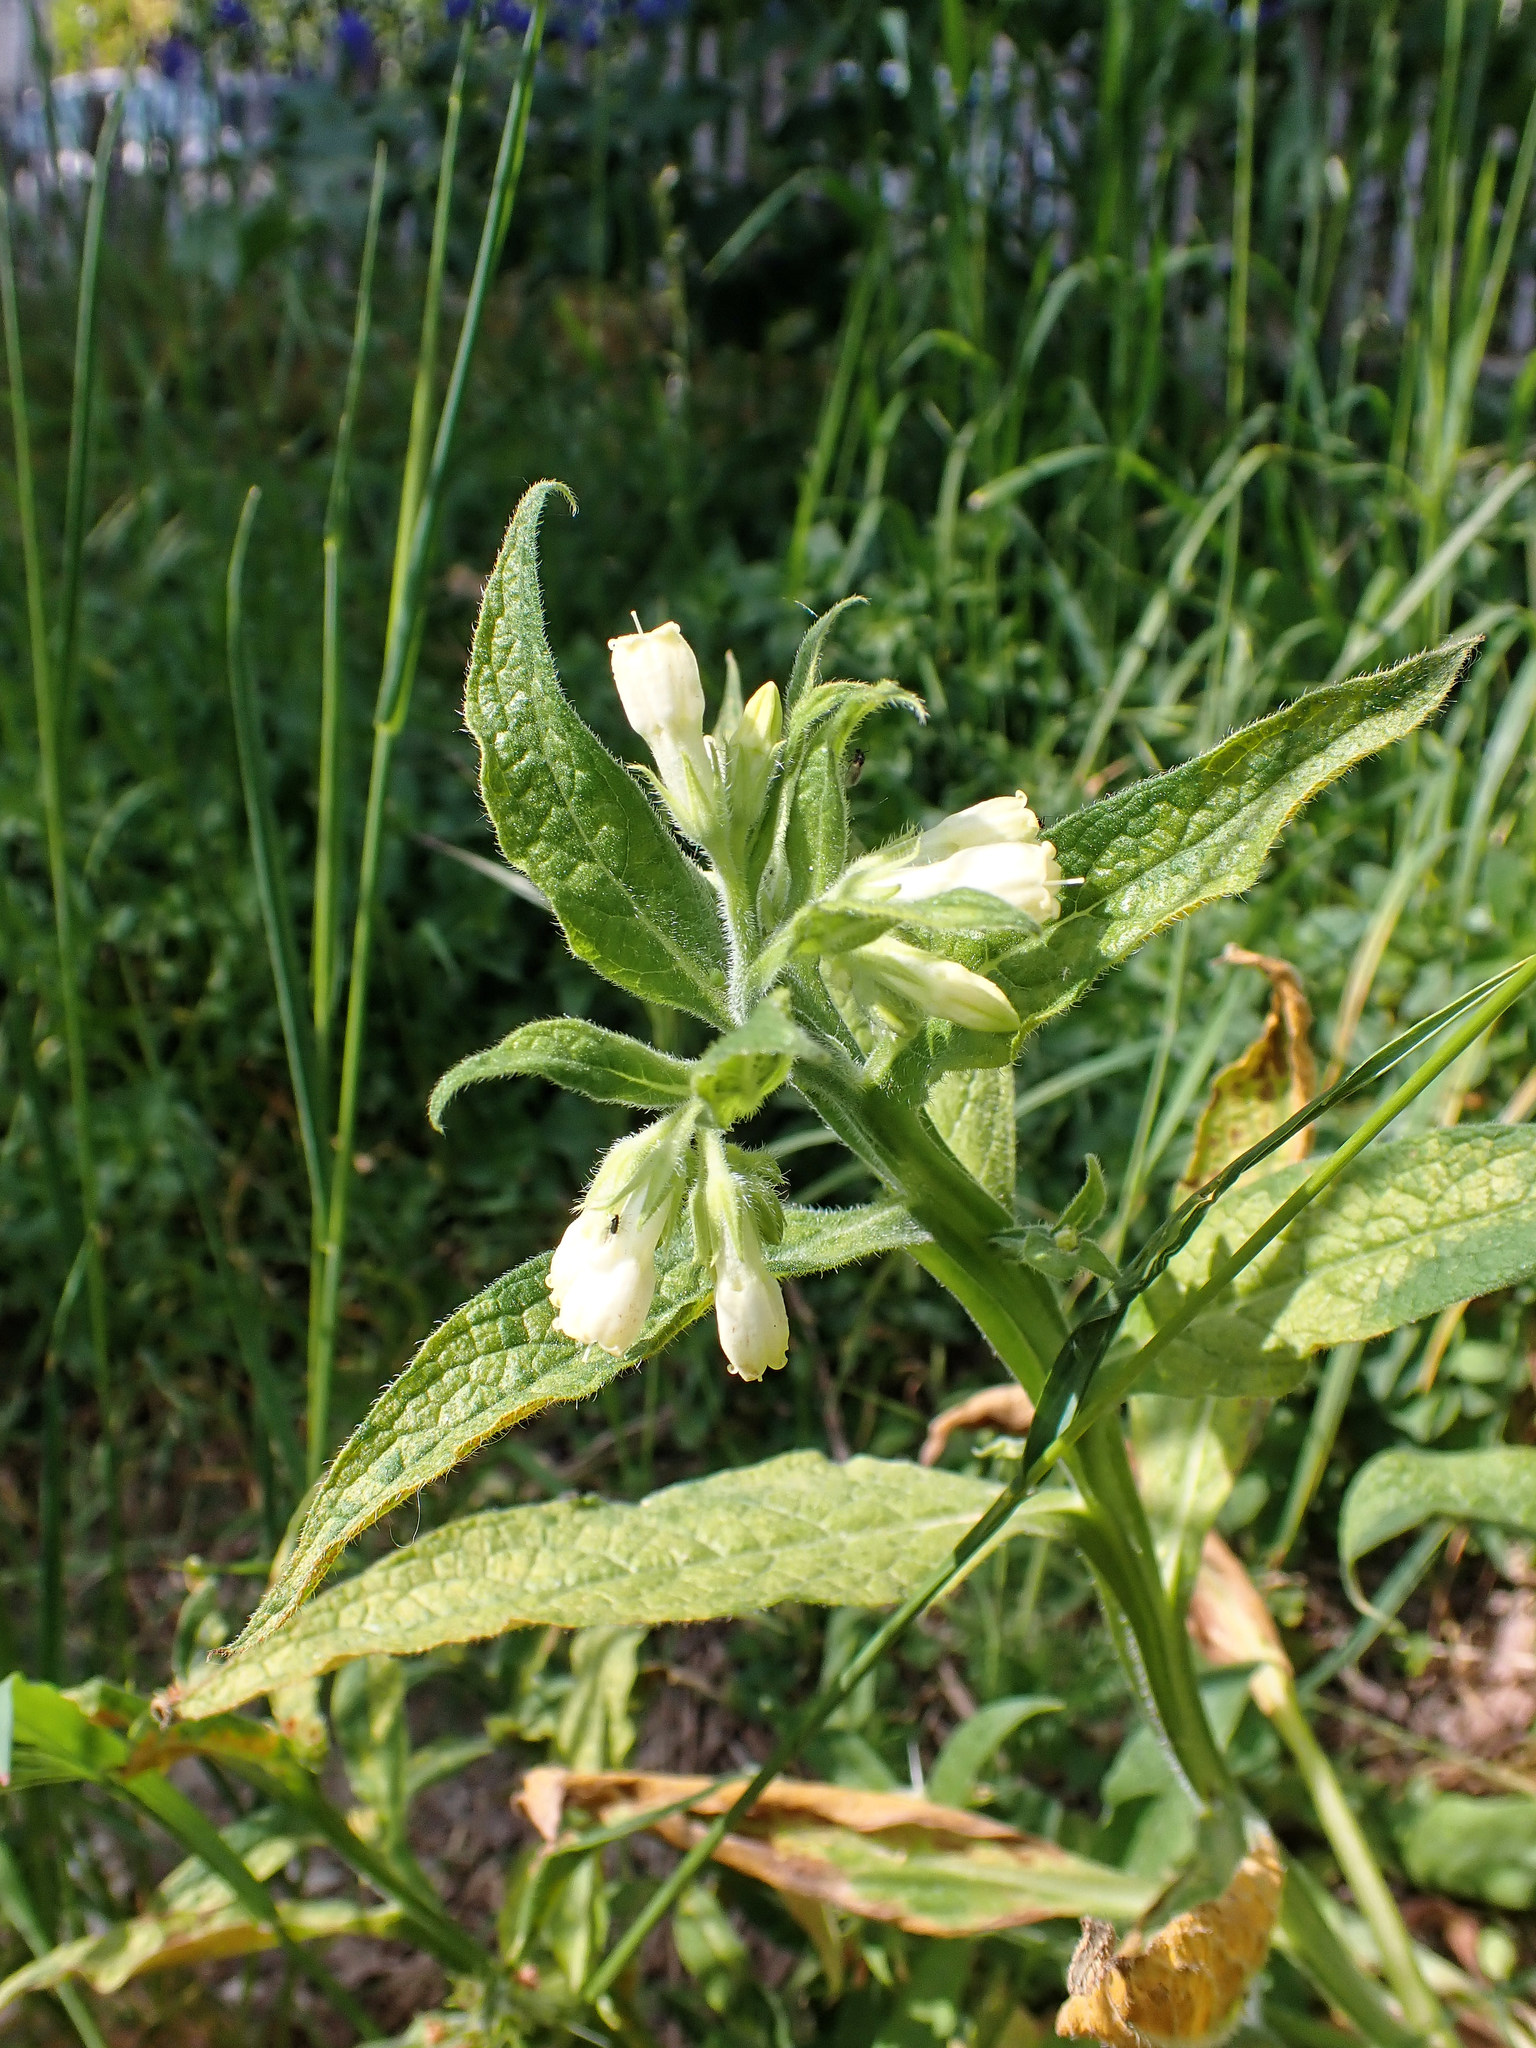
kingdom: Plantae
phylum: Tracheophyta
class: Magnoliopsida
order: Boraginales
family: Boraginaceae
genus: Symphytum
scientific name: Symphytum officinale
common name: Common comfrey
